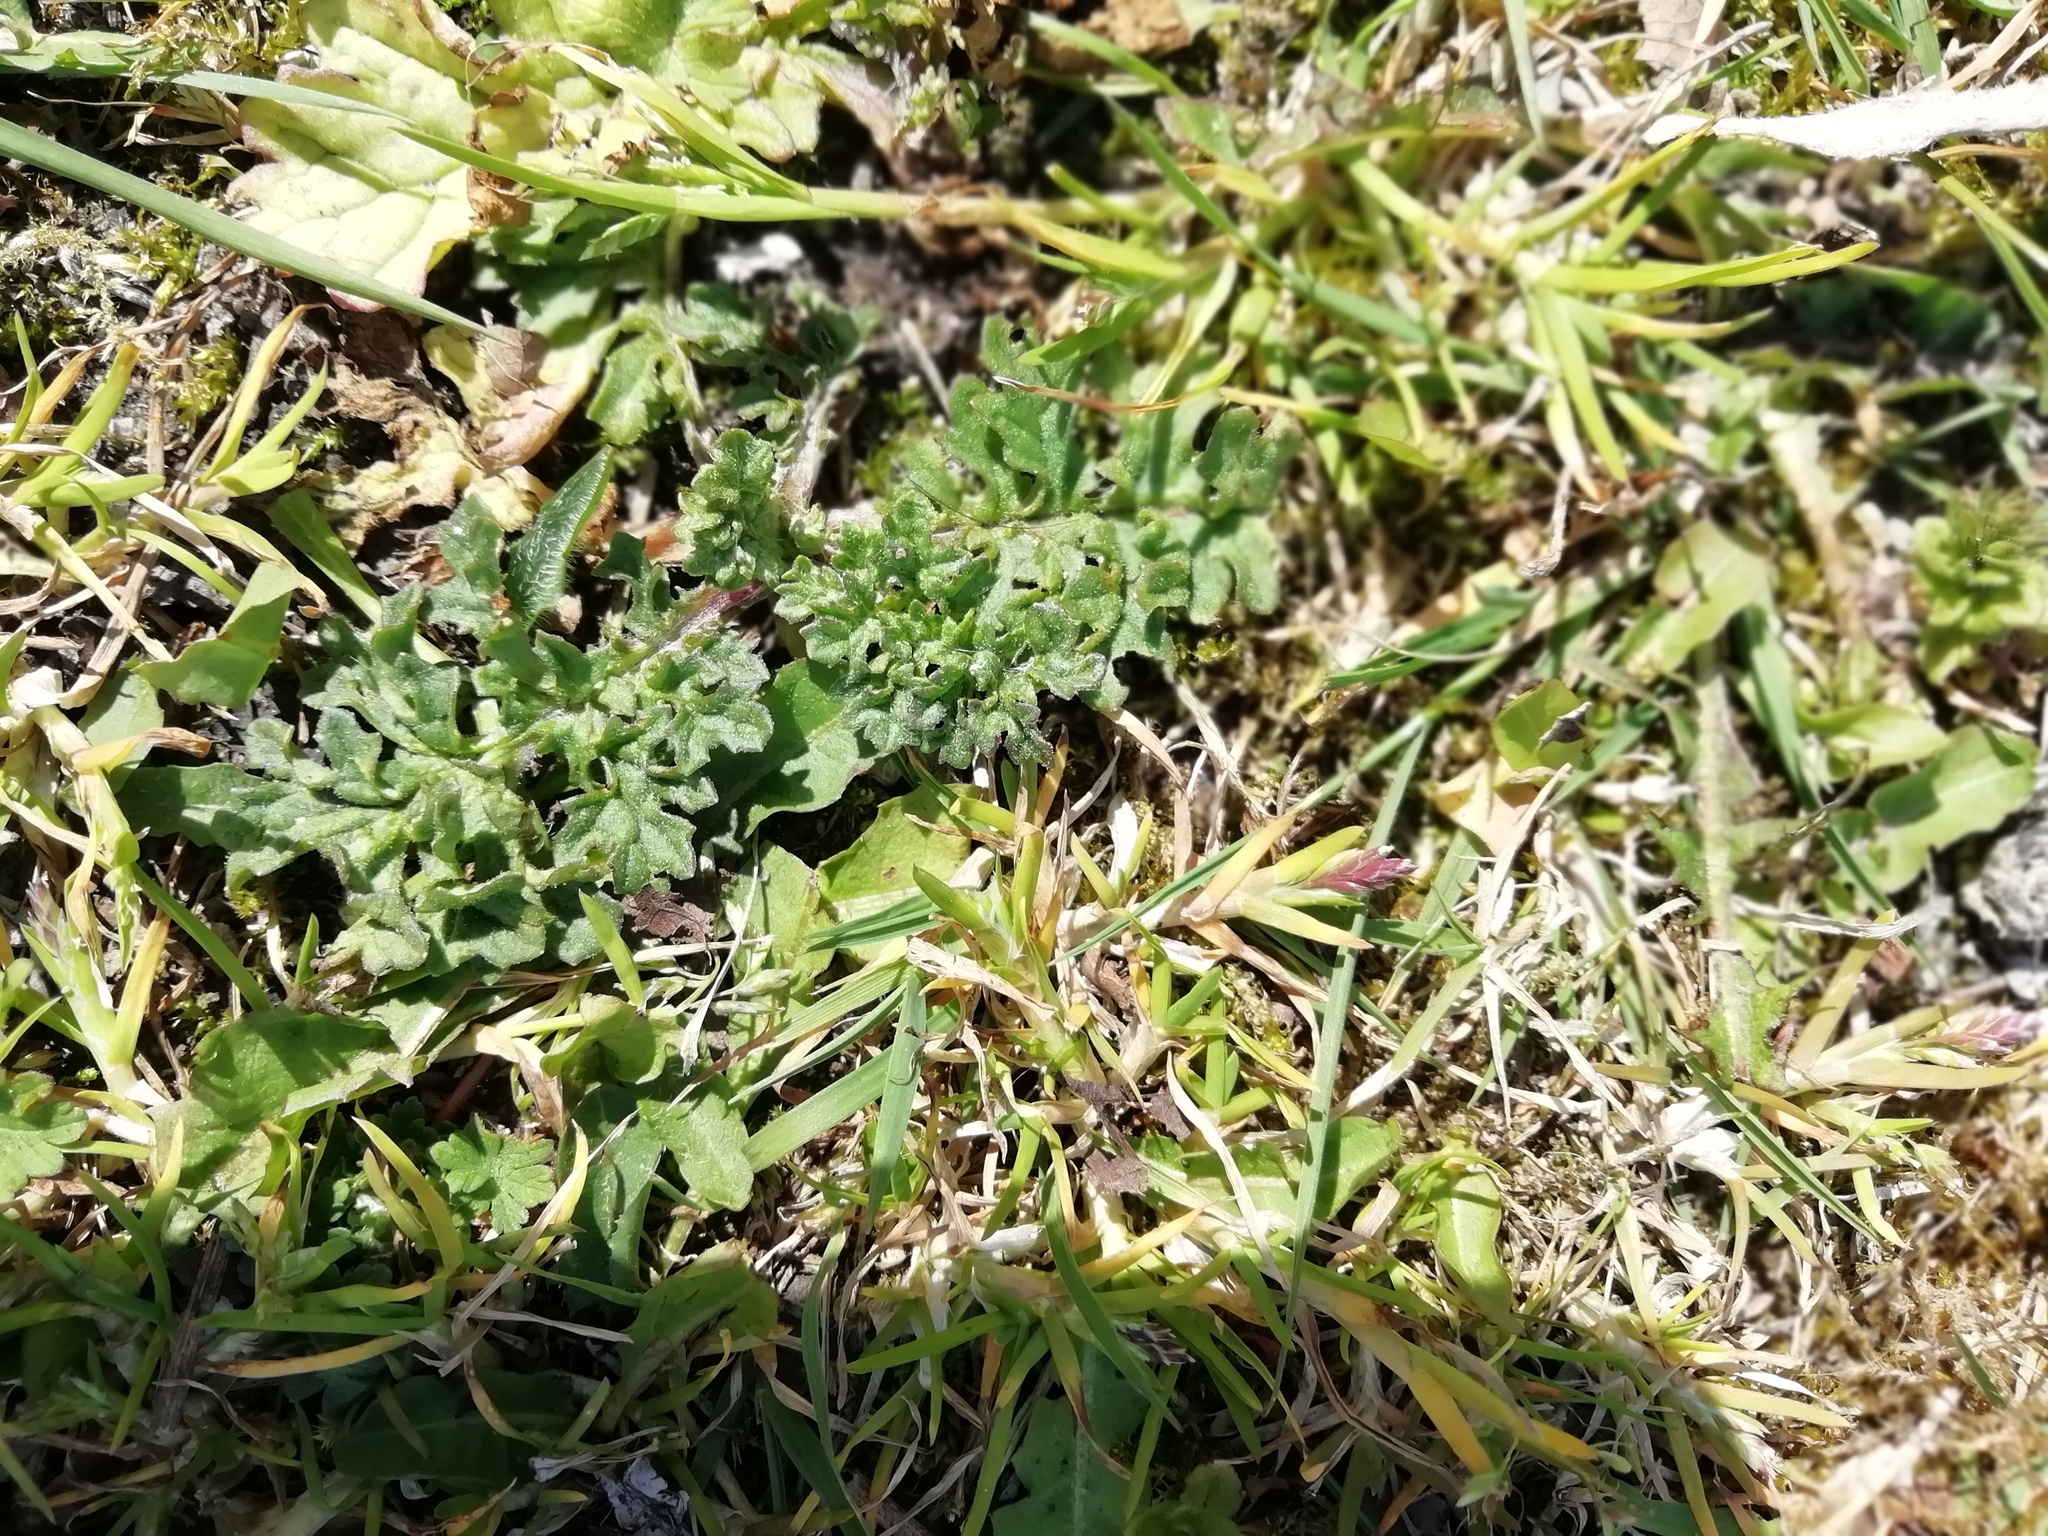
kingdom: Plantae
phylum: Tracheophyta
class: Magnoliopsida
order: Asterales
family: Asteraceae
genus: Jacobaea
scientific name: Jacobaea vulgaris
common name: Stinking willie
